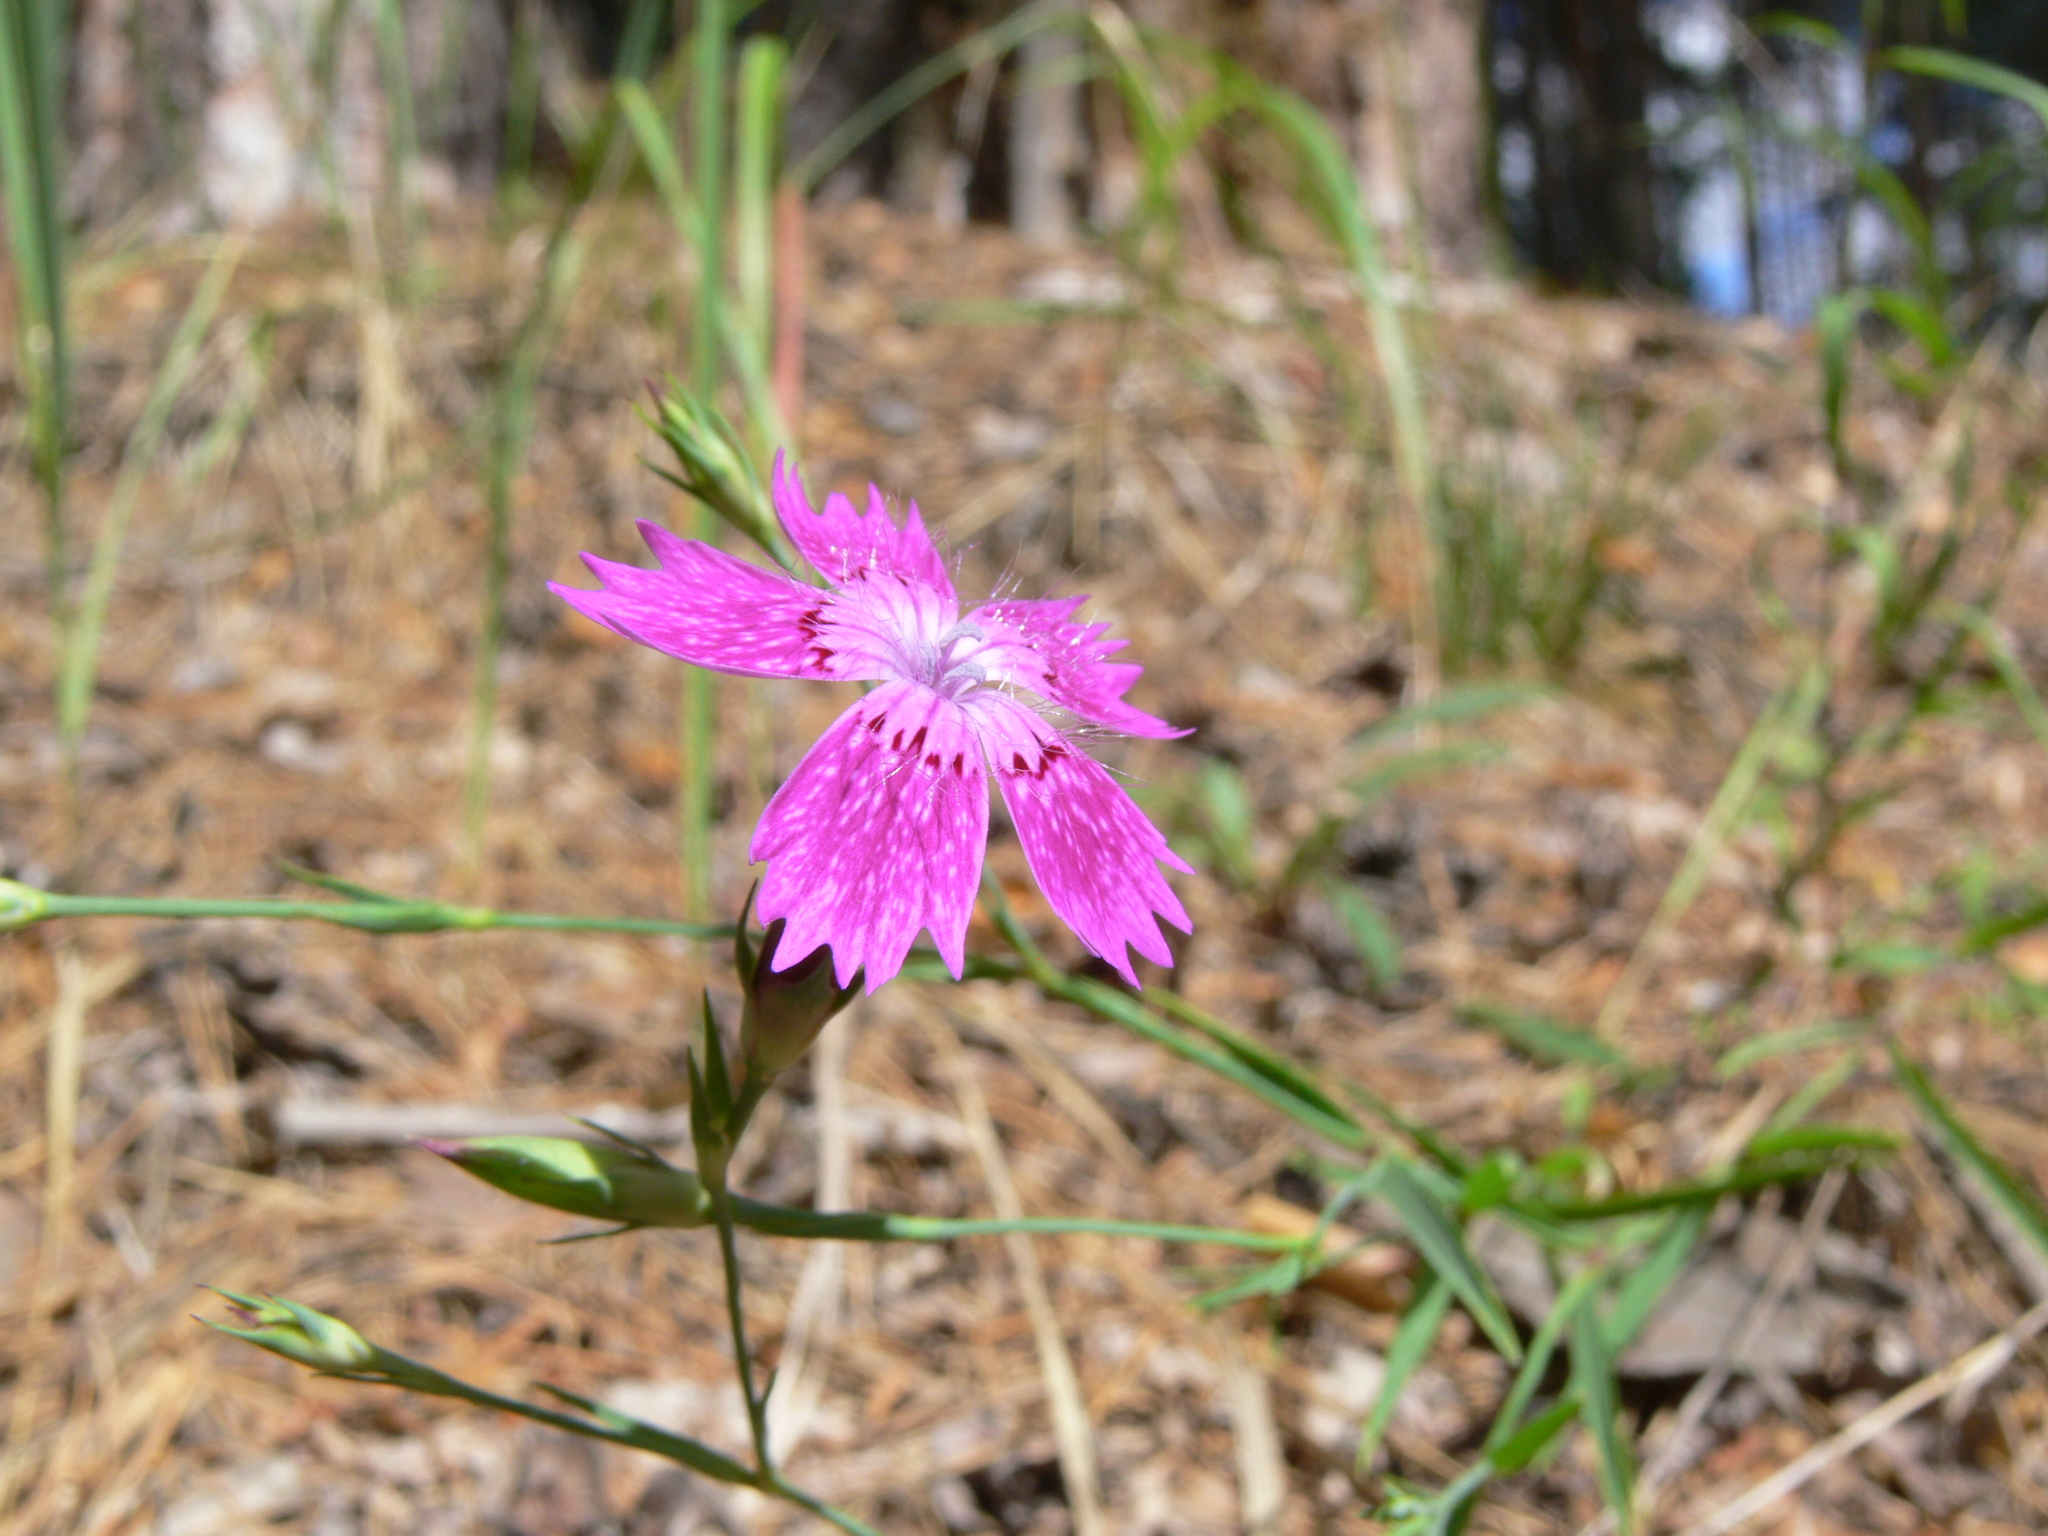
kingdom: Plantae
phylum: Tracheophyta
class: Magnoliopsida
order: Caryophyllales
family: Caryophyllaceae
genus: Dianthus
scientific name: Dianthus chinensis
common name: Rainbow pink
